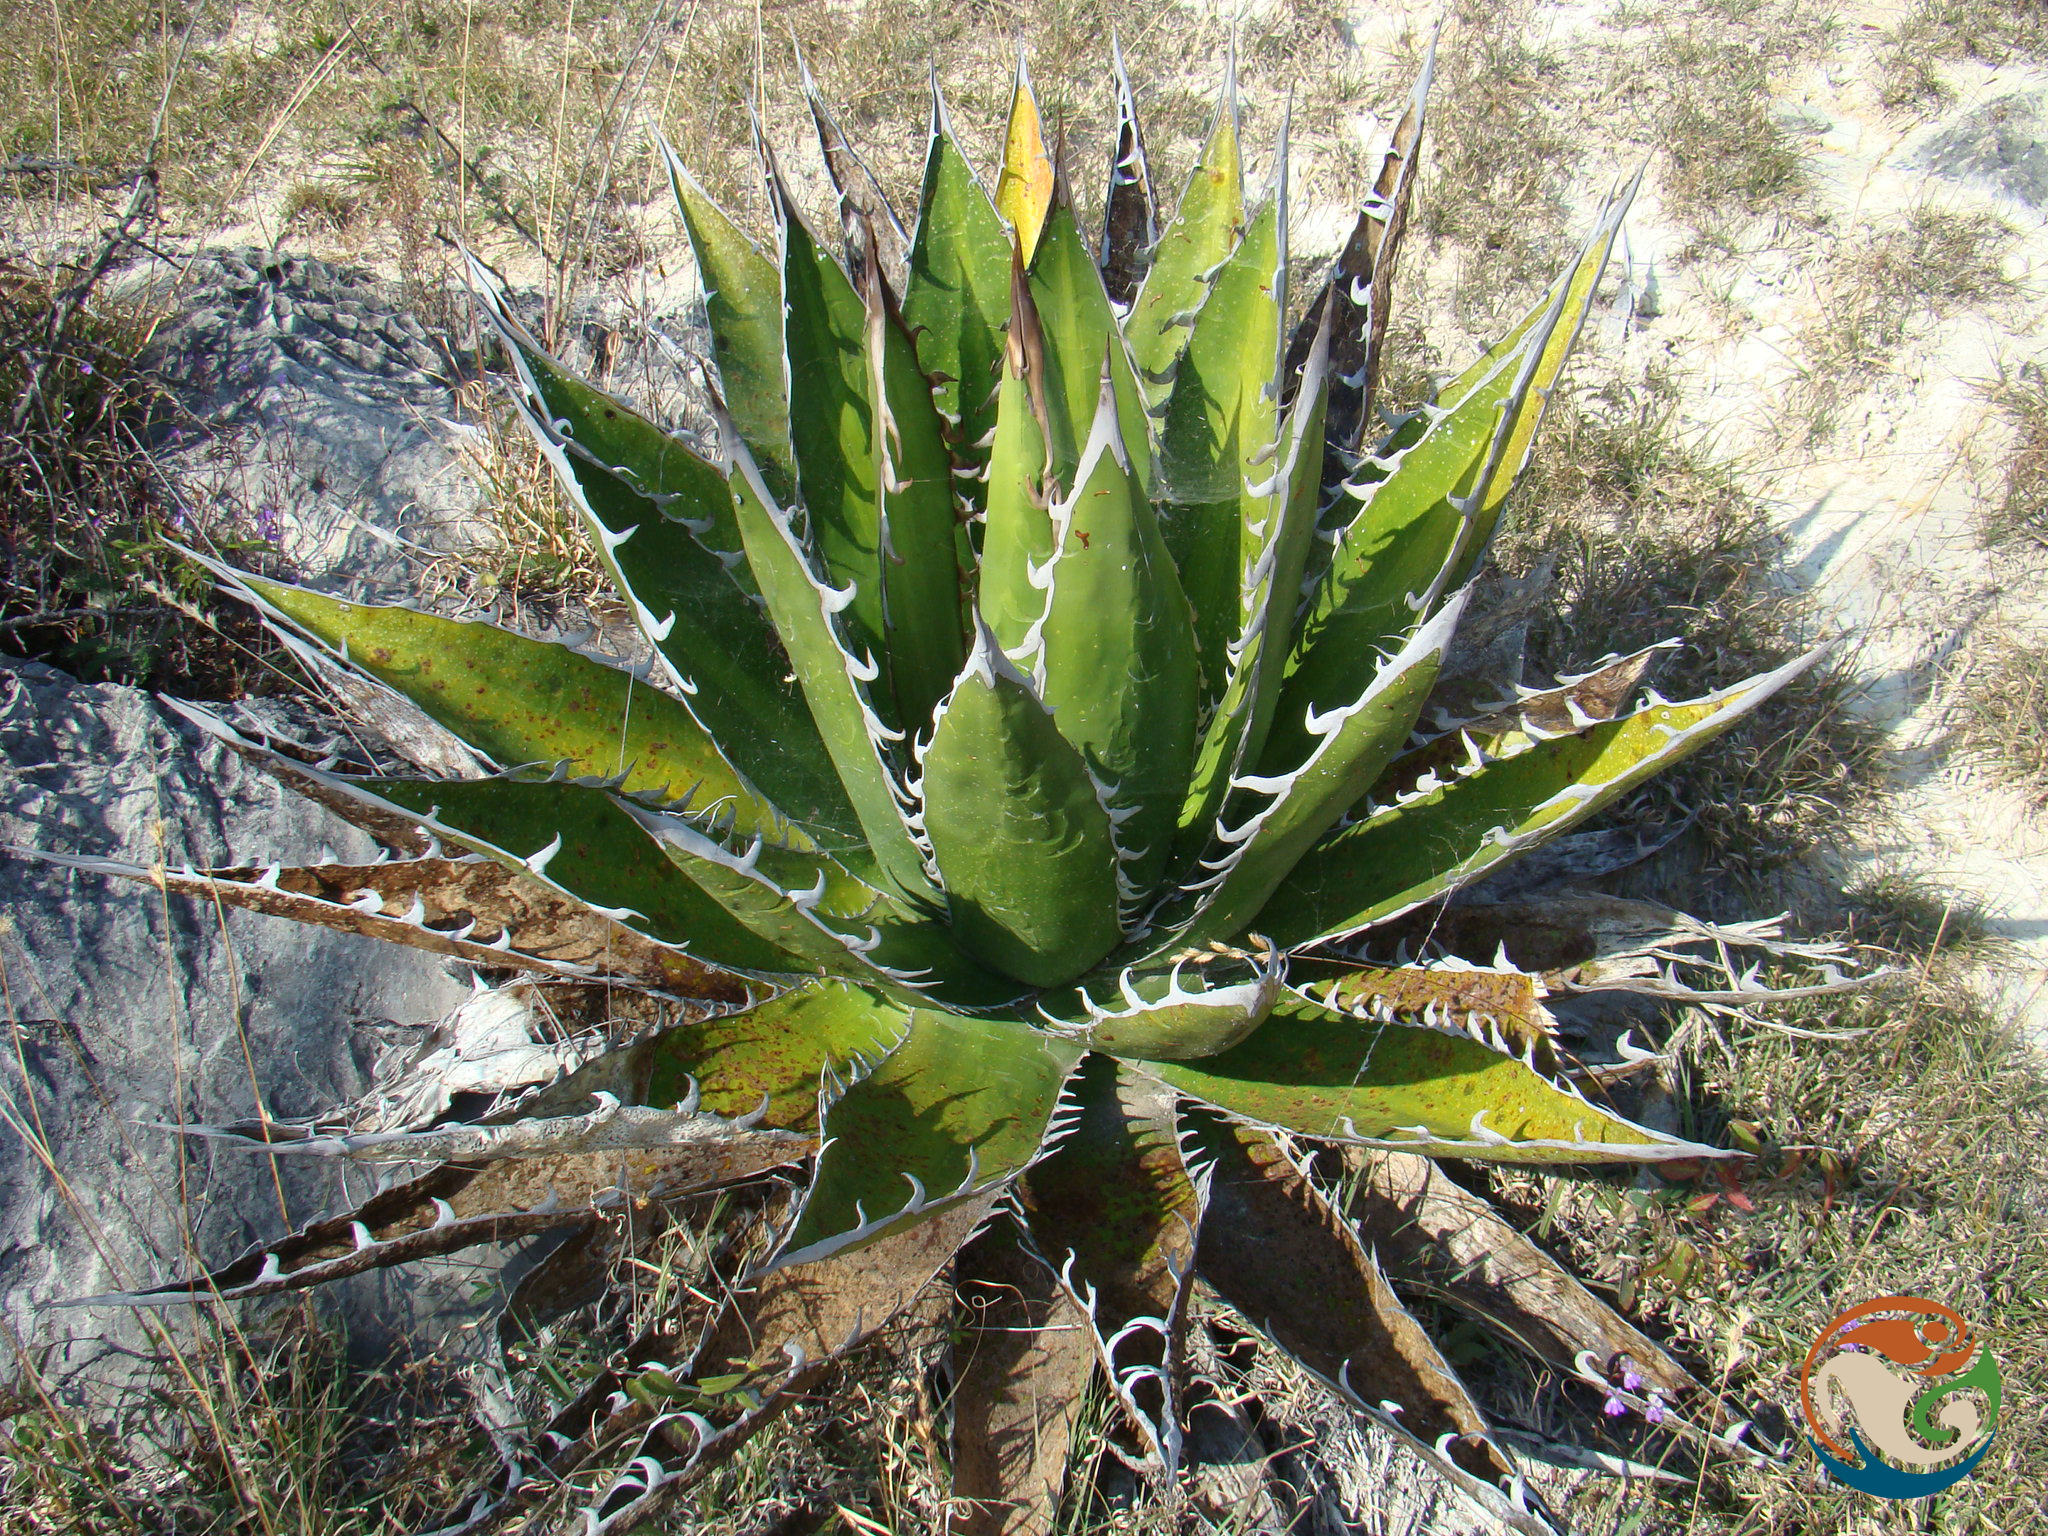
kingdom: Plantae
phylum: Tracheophyta
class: Liliopsida
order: Asparagales
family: Asparagaceae
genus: Agave
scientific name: Agave convallis
